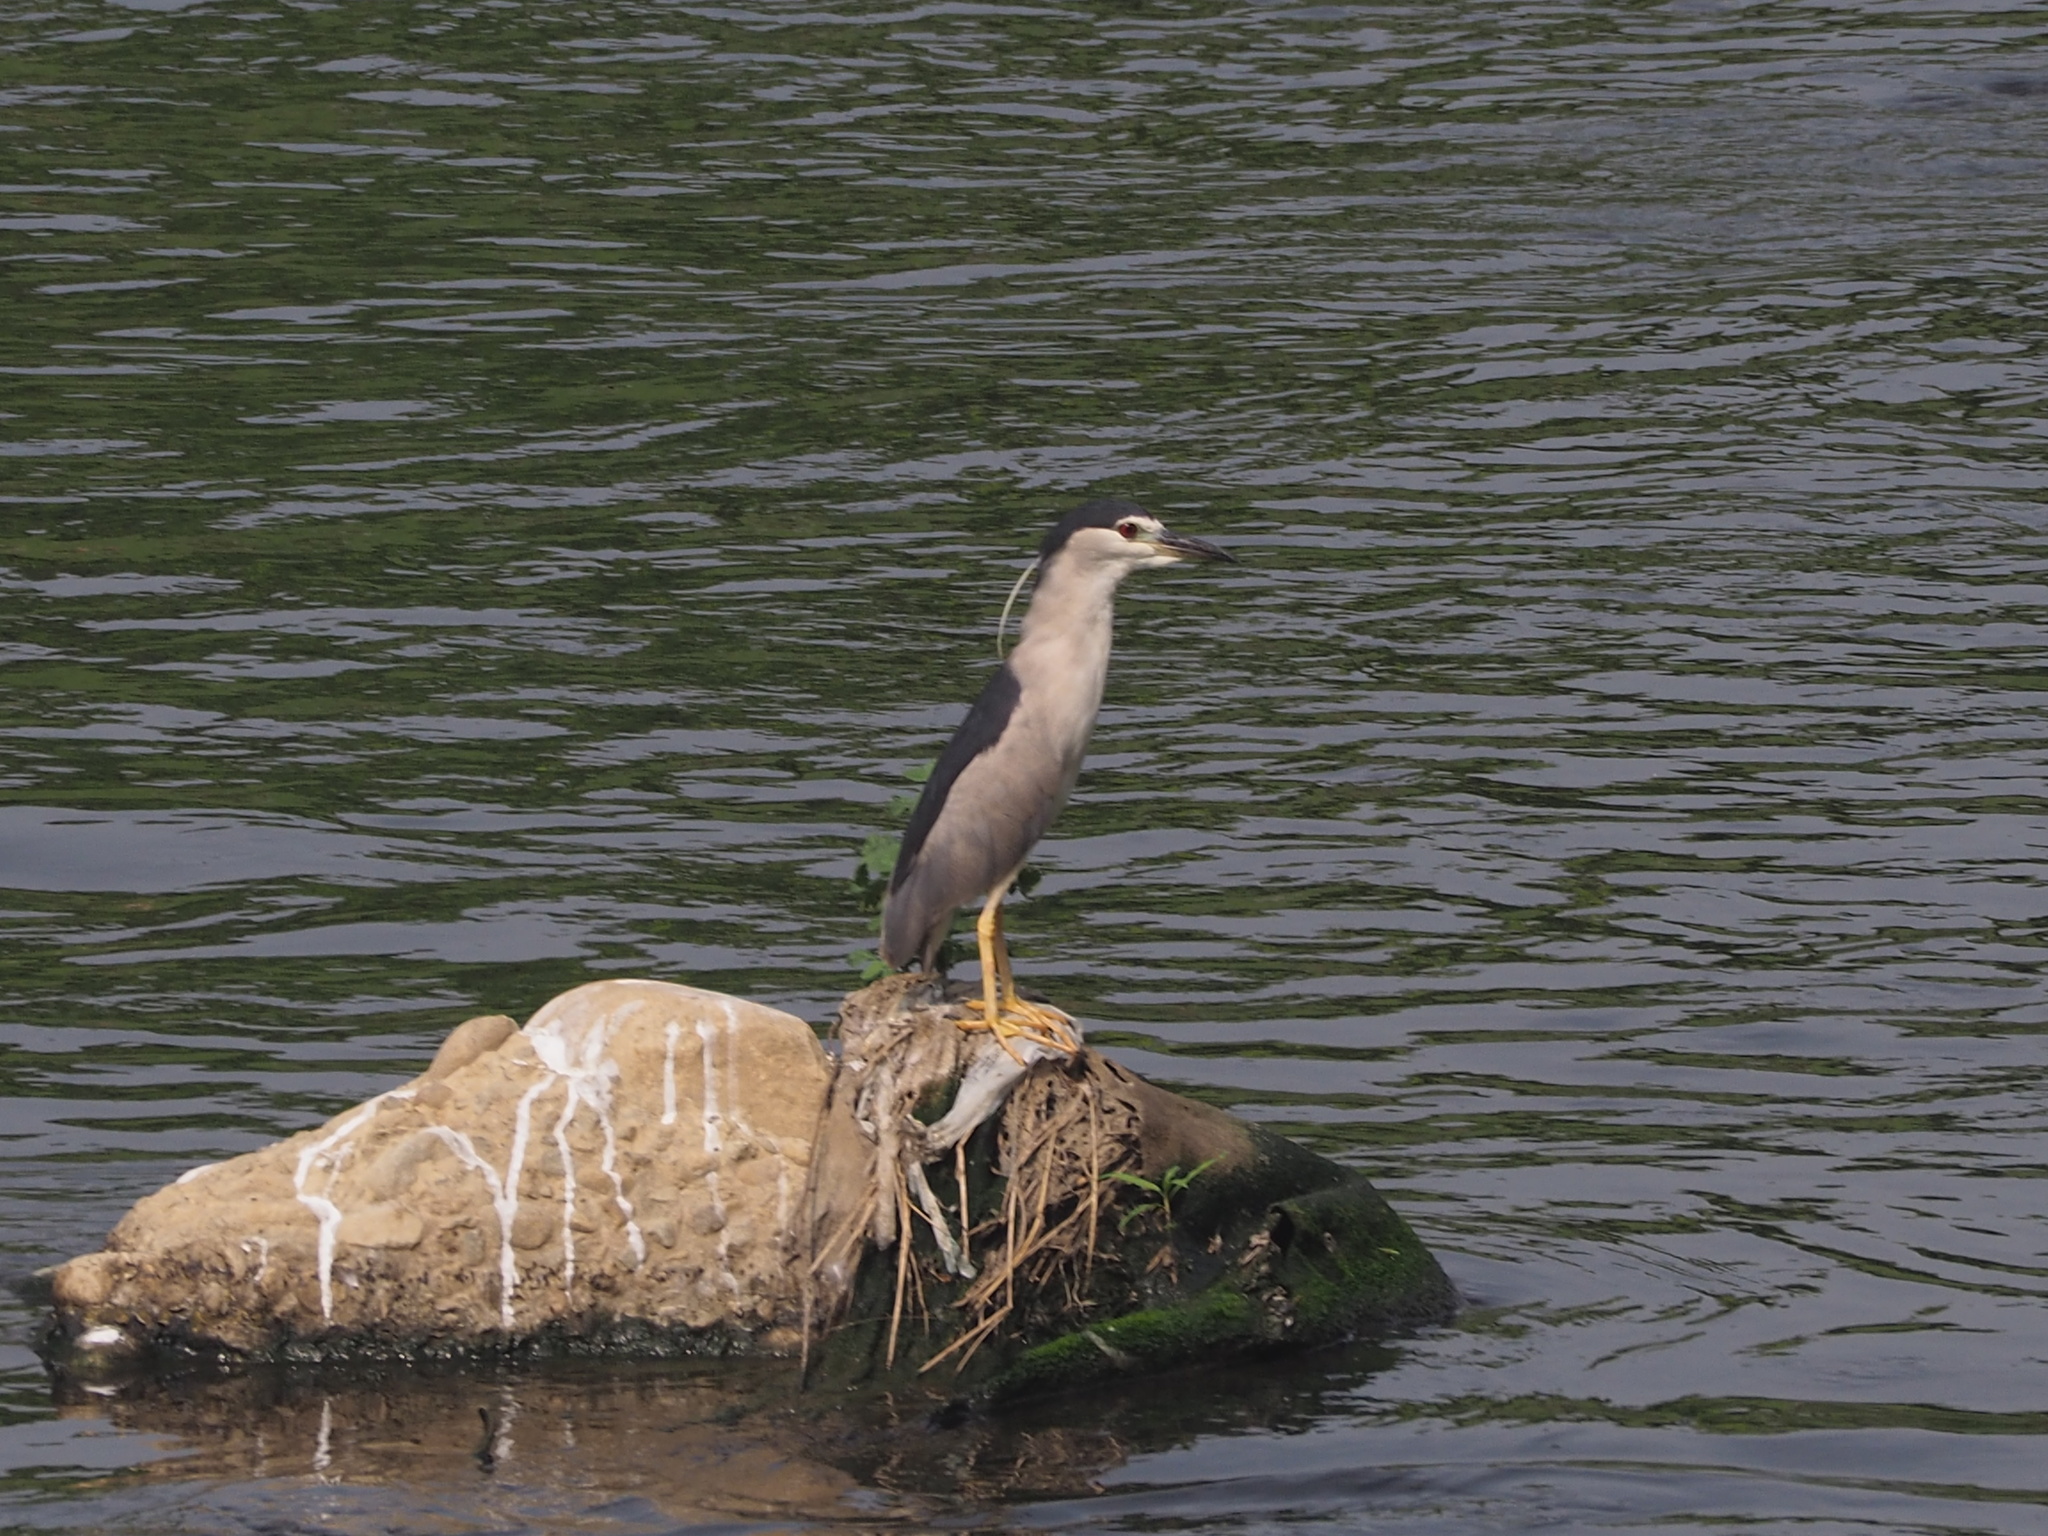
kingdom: Animalia
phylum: Chordata
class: Aves
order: Pelecaniformes
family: Ardeidae
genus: Nycticorax
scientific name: Nycticorax nycticorax
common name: Black-crowned night heron
